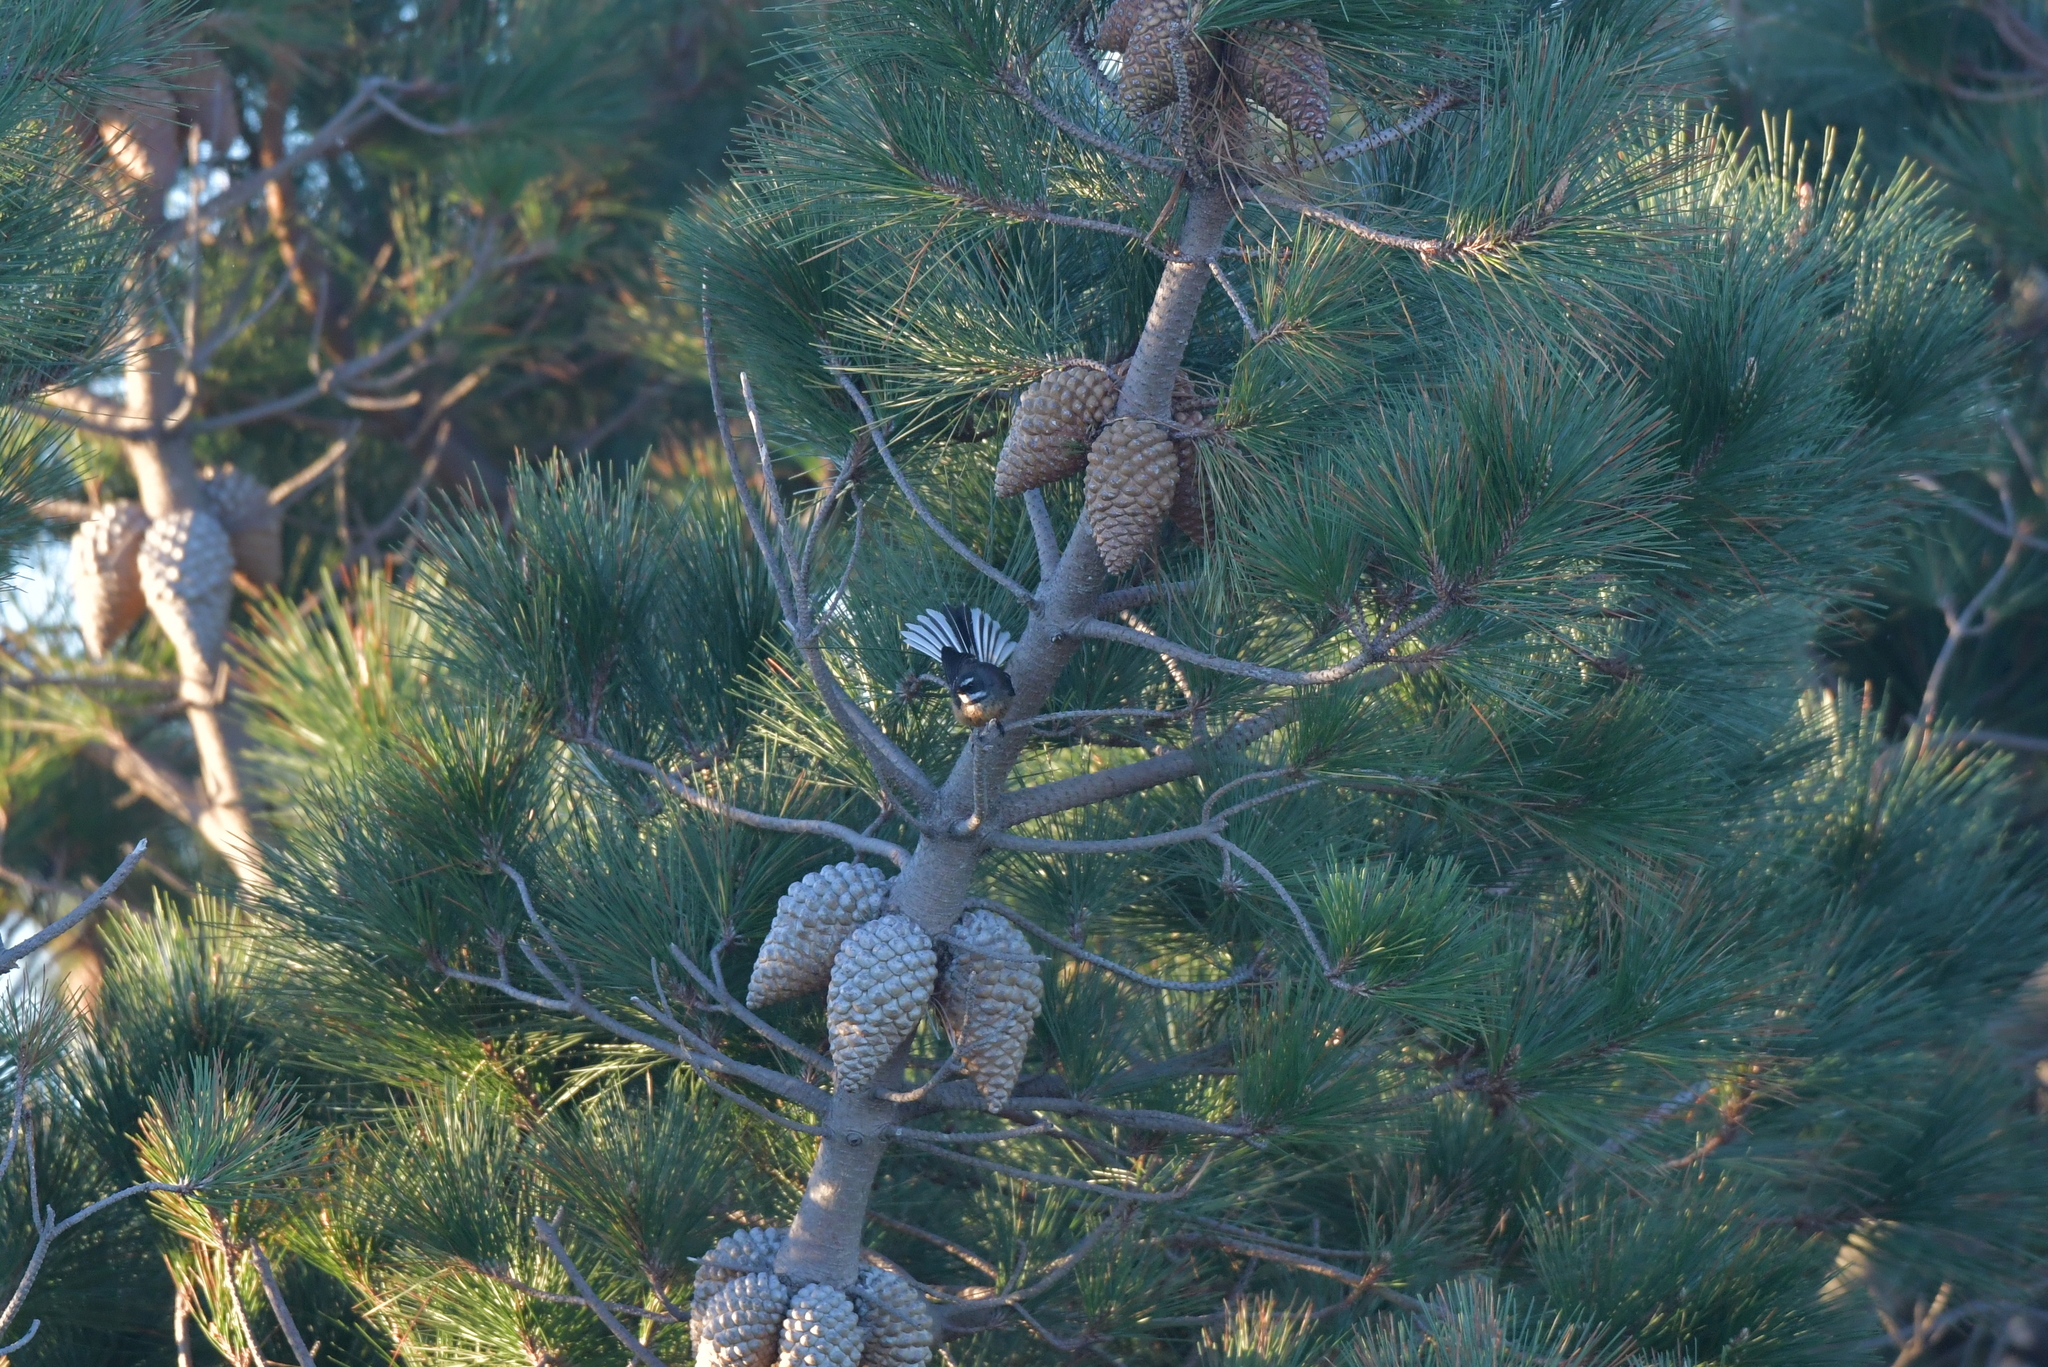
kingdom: Animalia
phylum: Chordata
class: Aves
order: Passeriformes
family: Rhipiduridae
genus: Rhipidura
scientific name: Rhipidura fuliginosa
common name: New zealand fantail
